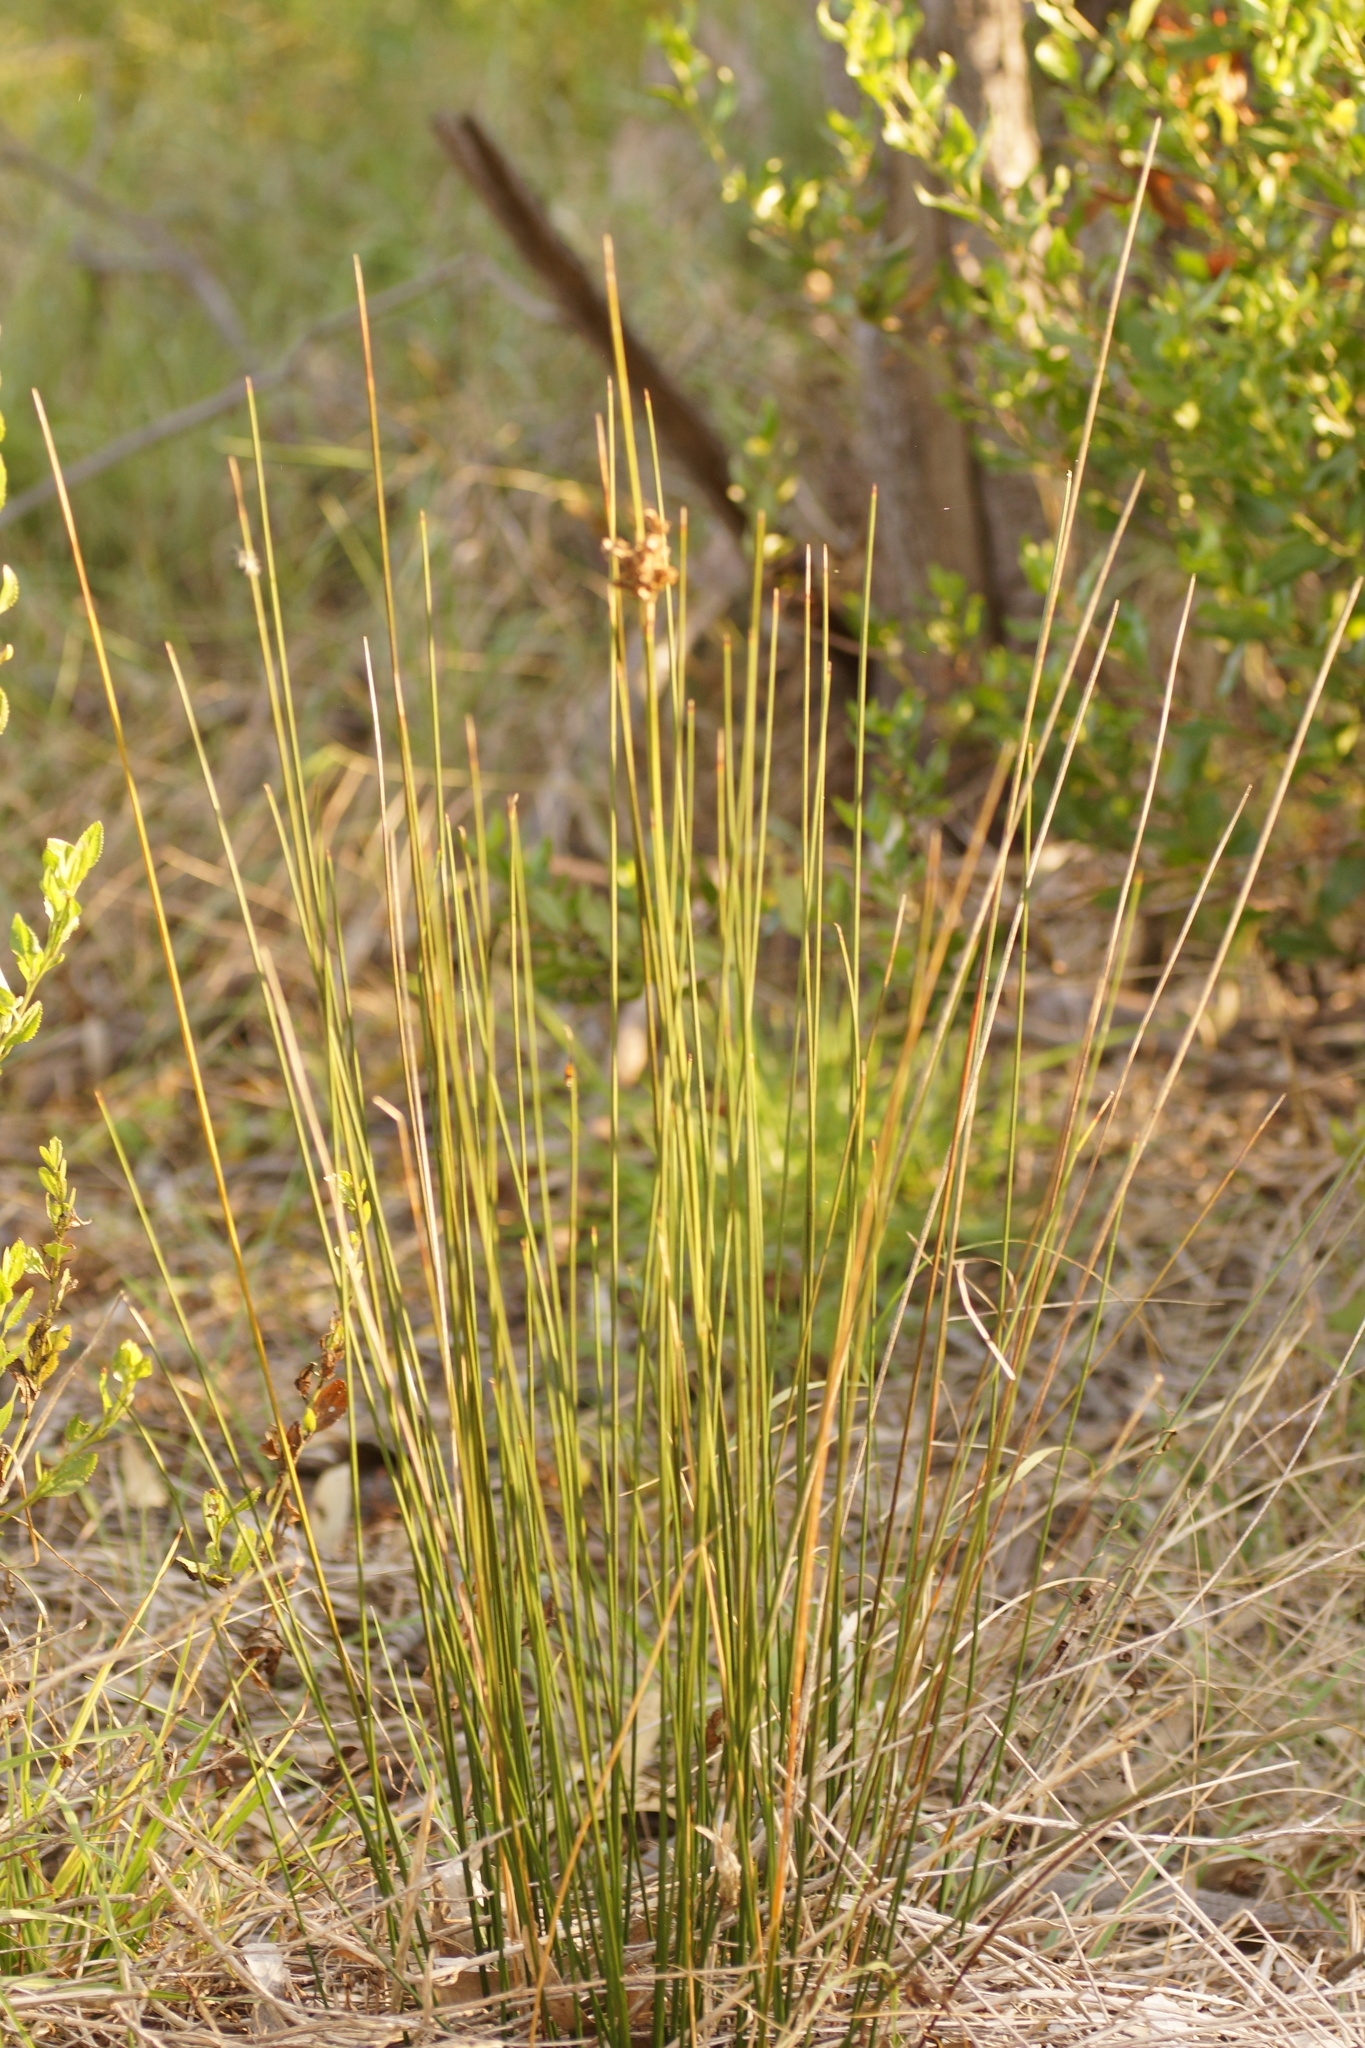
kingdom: Plantae
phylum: Tracheophyta
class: Liliopsida
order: Poales
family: Juncaceae
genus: Juncus
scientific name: Juncus
